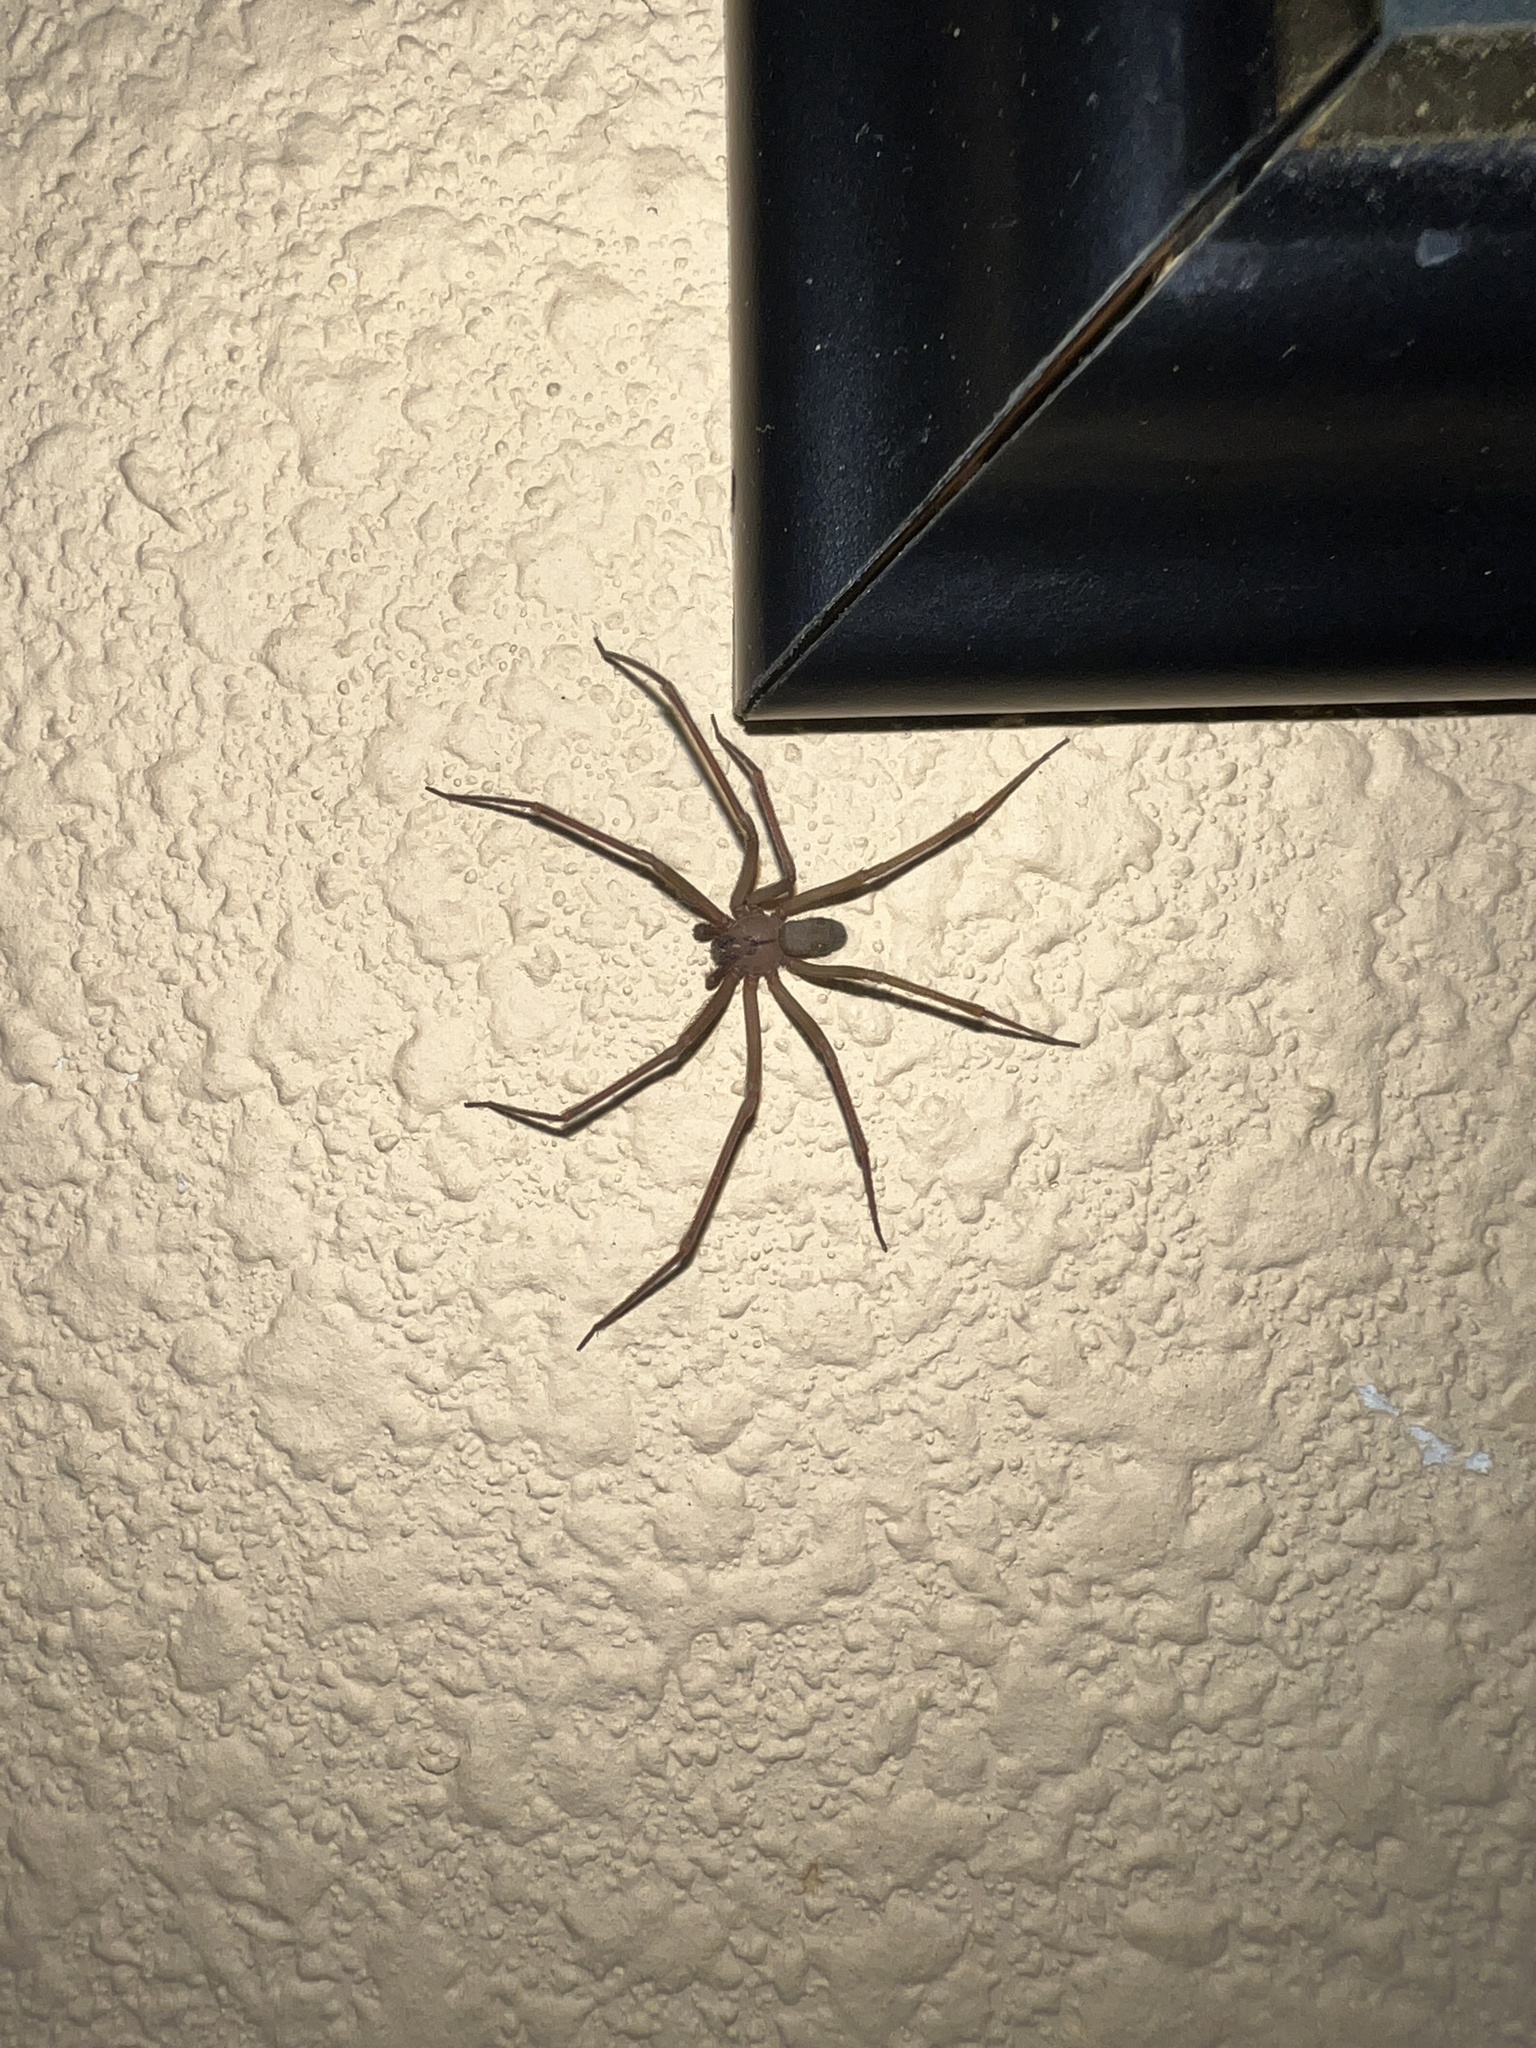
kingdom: Animalia
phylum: Arthropoda
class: Arachnida
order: Araneae
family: Sicariidae
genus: Loxosceles
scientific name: Loxosceles reclusa
